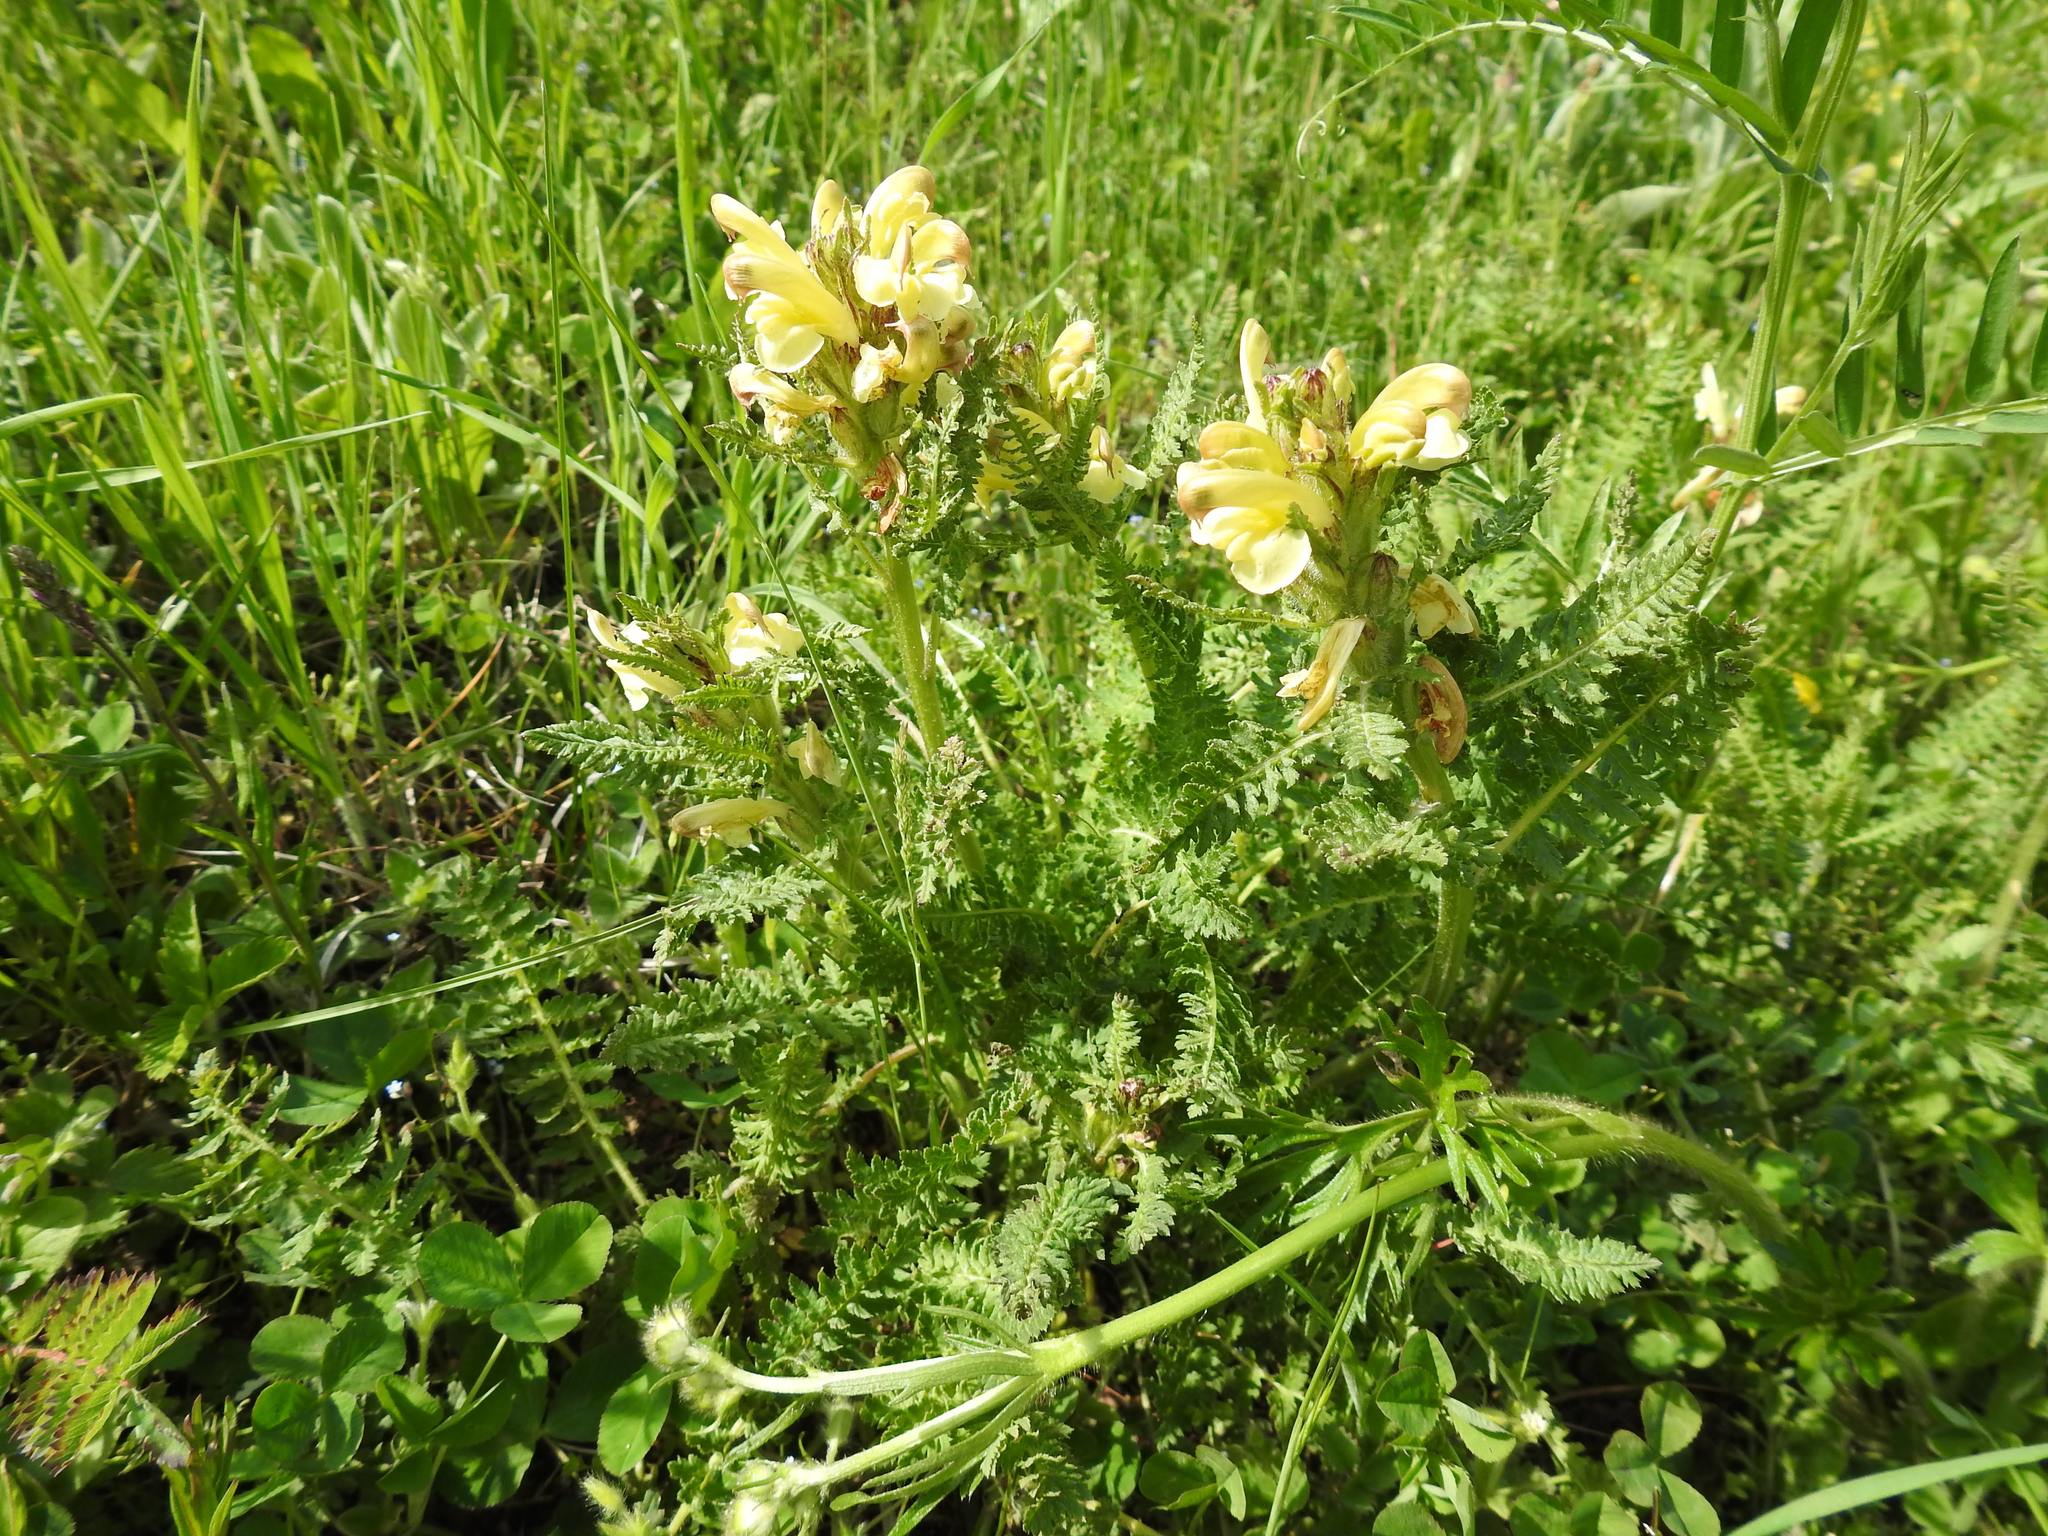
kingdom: Plantae
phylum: Tracheophyta
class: Magnoliopsida
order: Lamiales
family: Orobanchaceae
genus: Pedicularis
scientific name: Pedicularis sibthorpii
